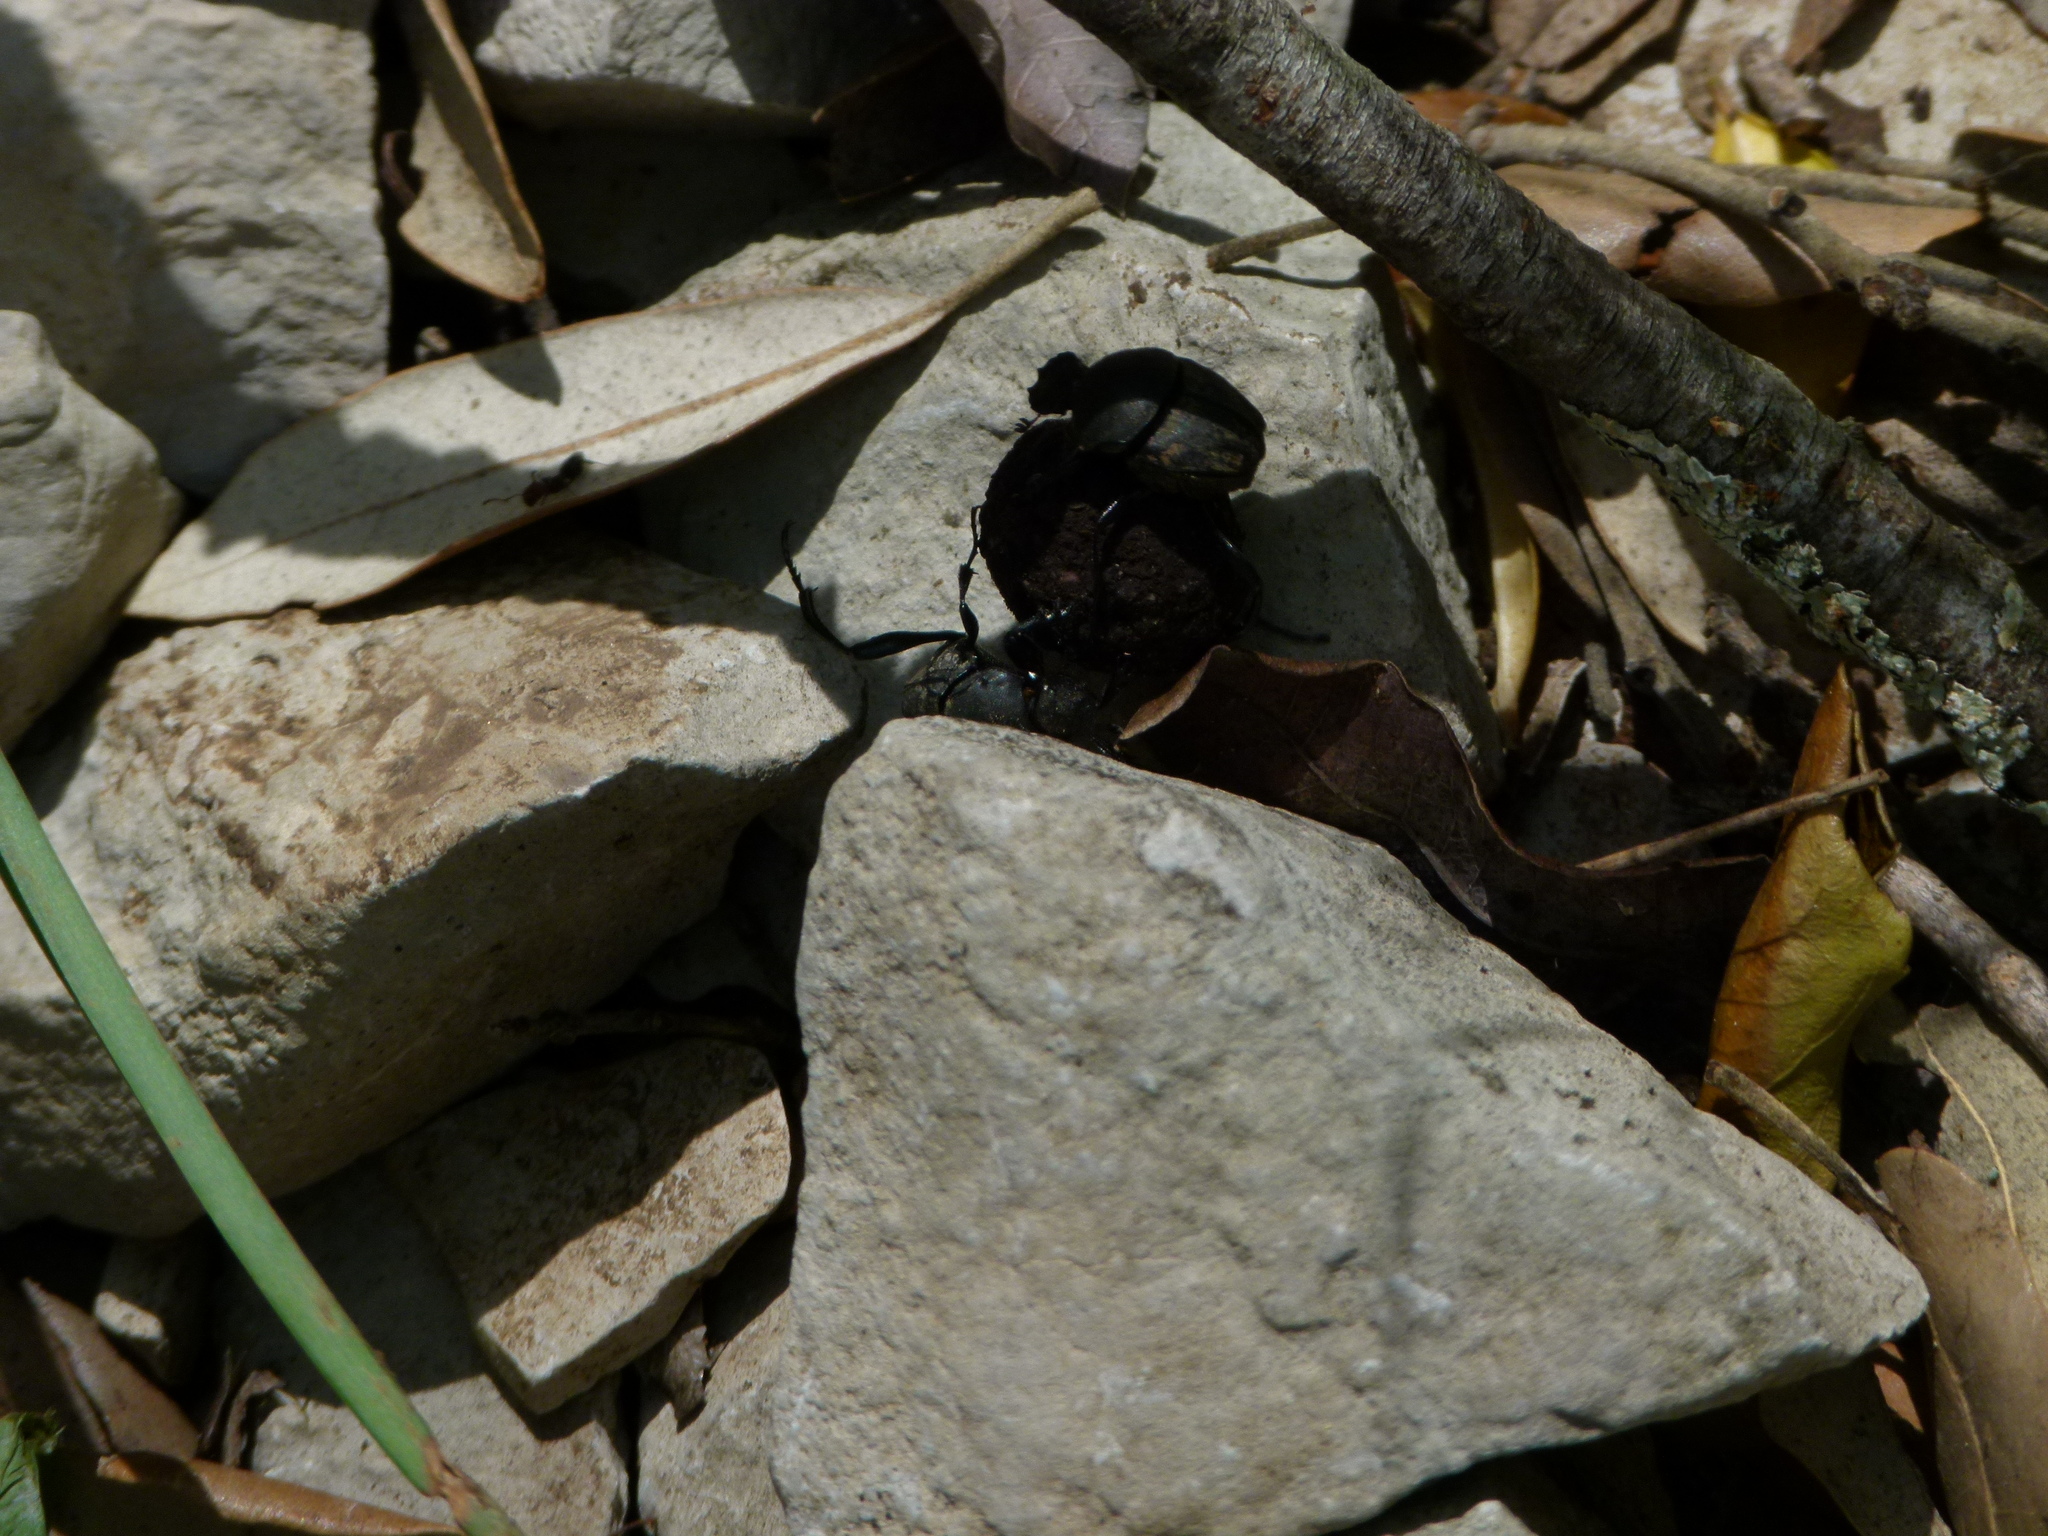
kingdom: Animalia
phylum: Arthropoda
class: Insecta
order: Coleoptera
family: Scarabaeidae
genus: Sisyphus
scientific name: Sisyphus schaefferi
